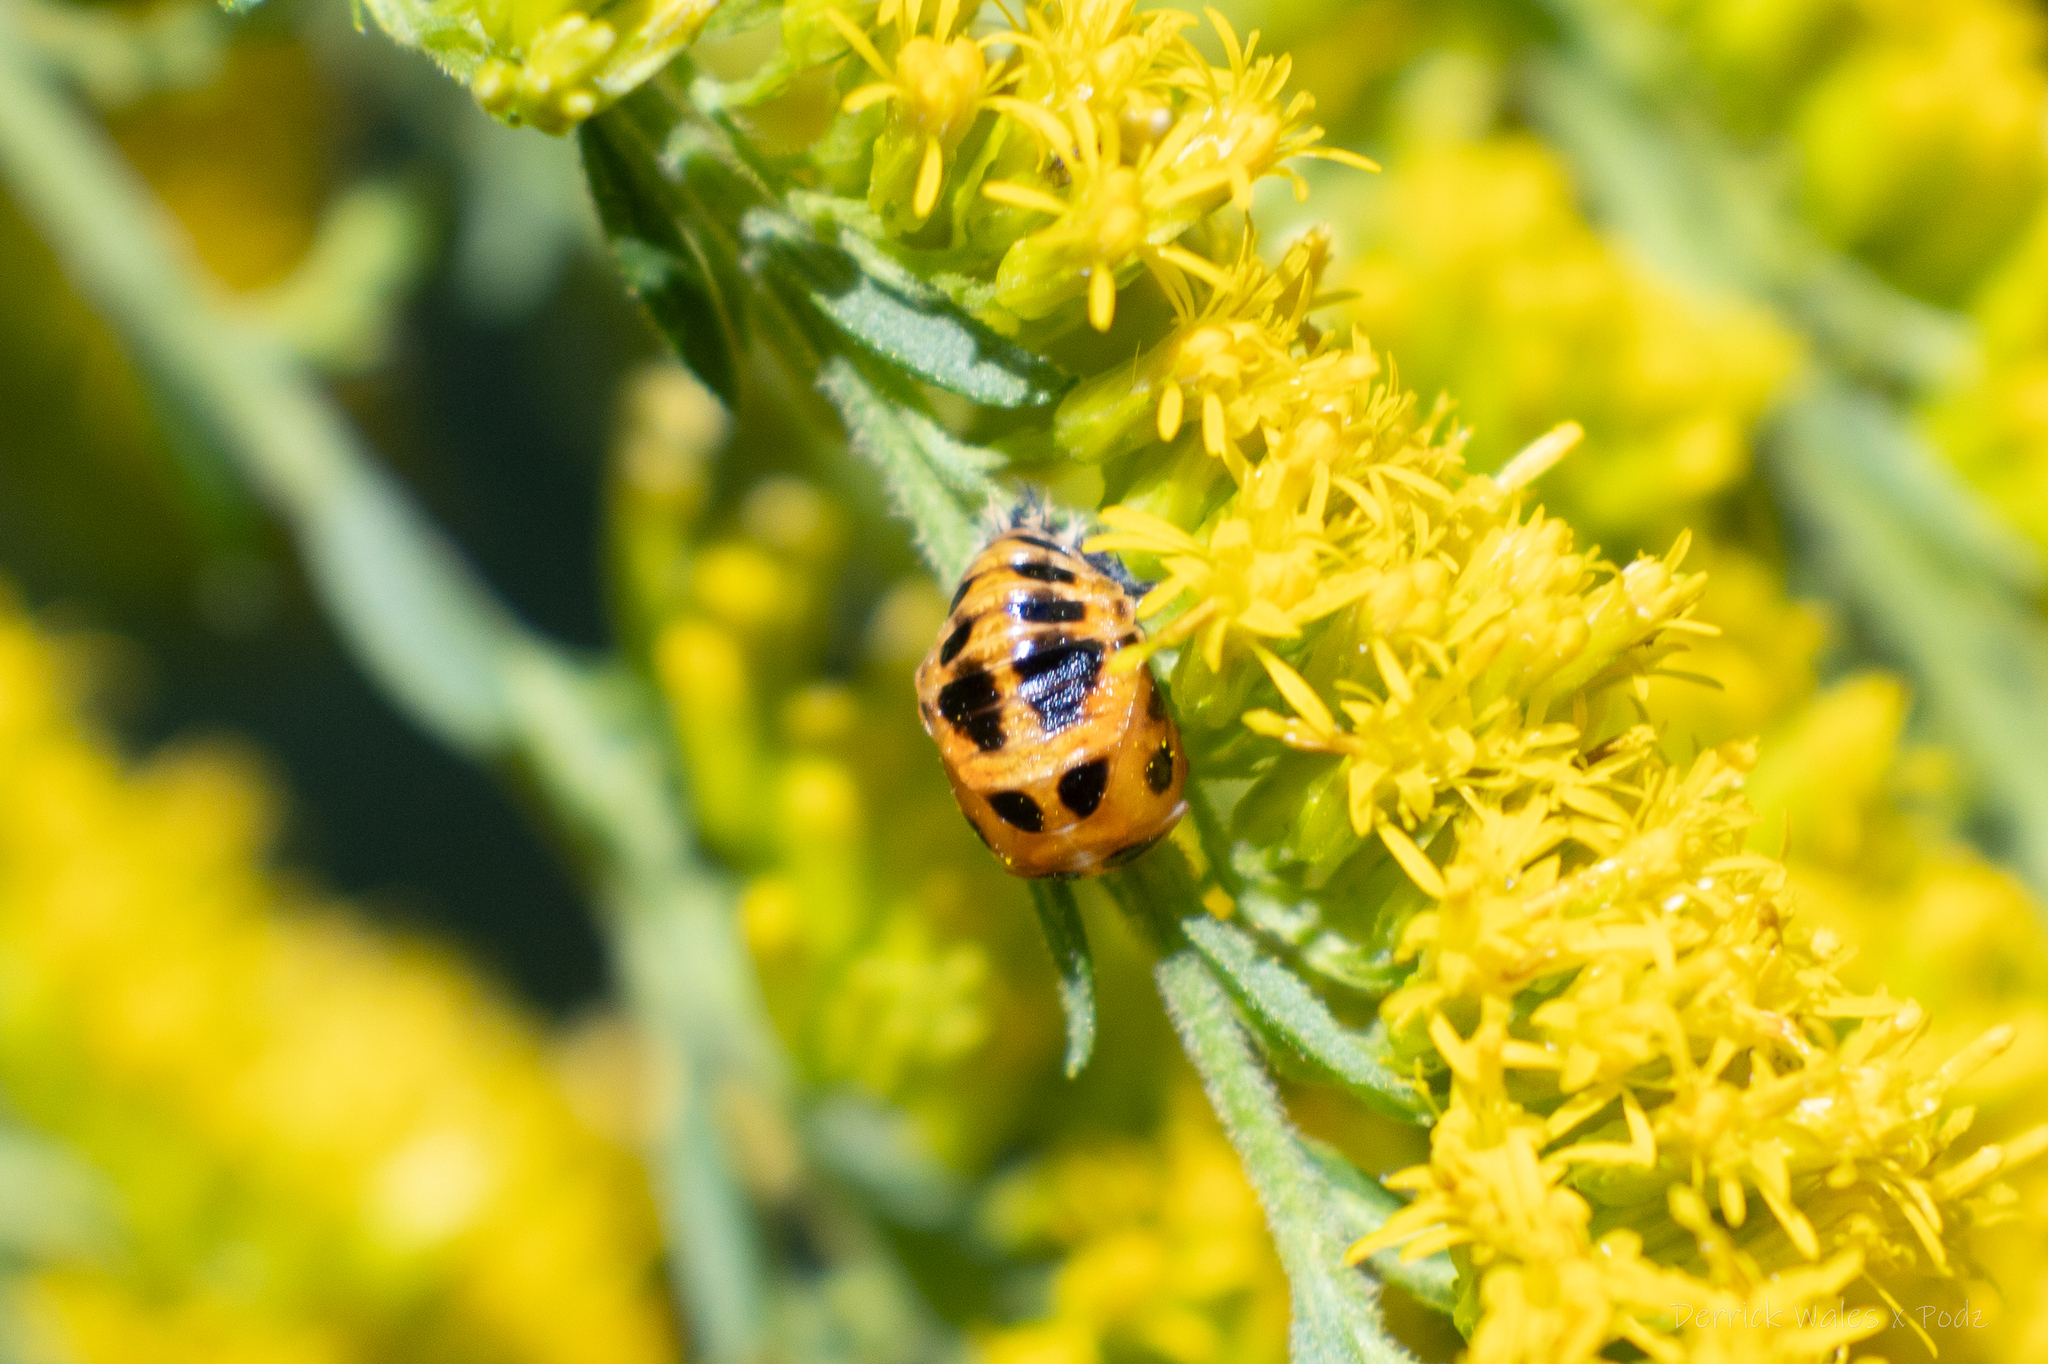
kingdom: Animalia
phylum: Arthropoda
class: Insecta
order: Coleoptera
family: Coccinellidae
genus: Harmonia
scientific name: Harmonia axyridis
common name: Harlequin ladybird
